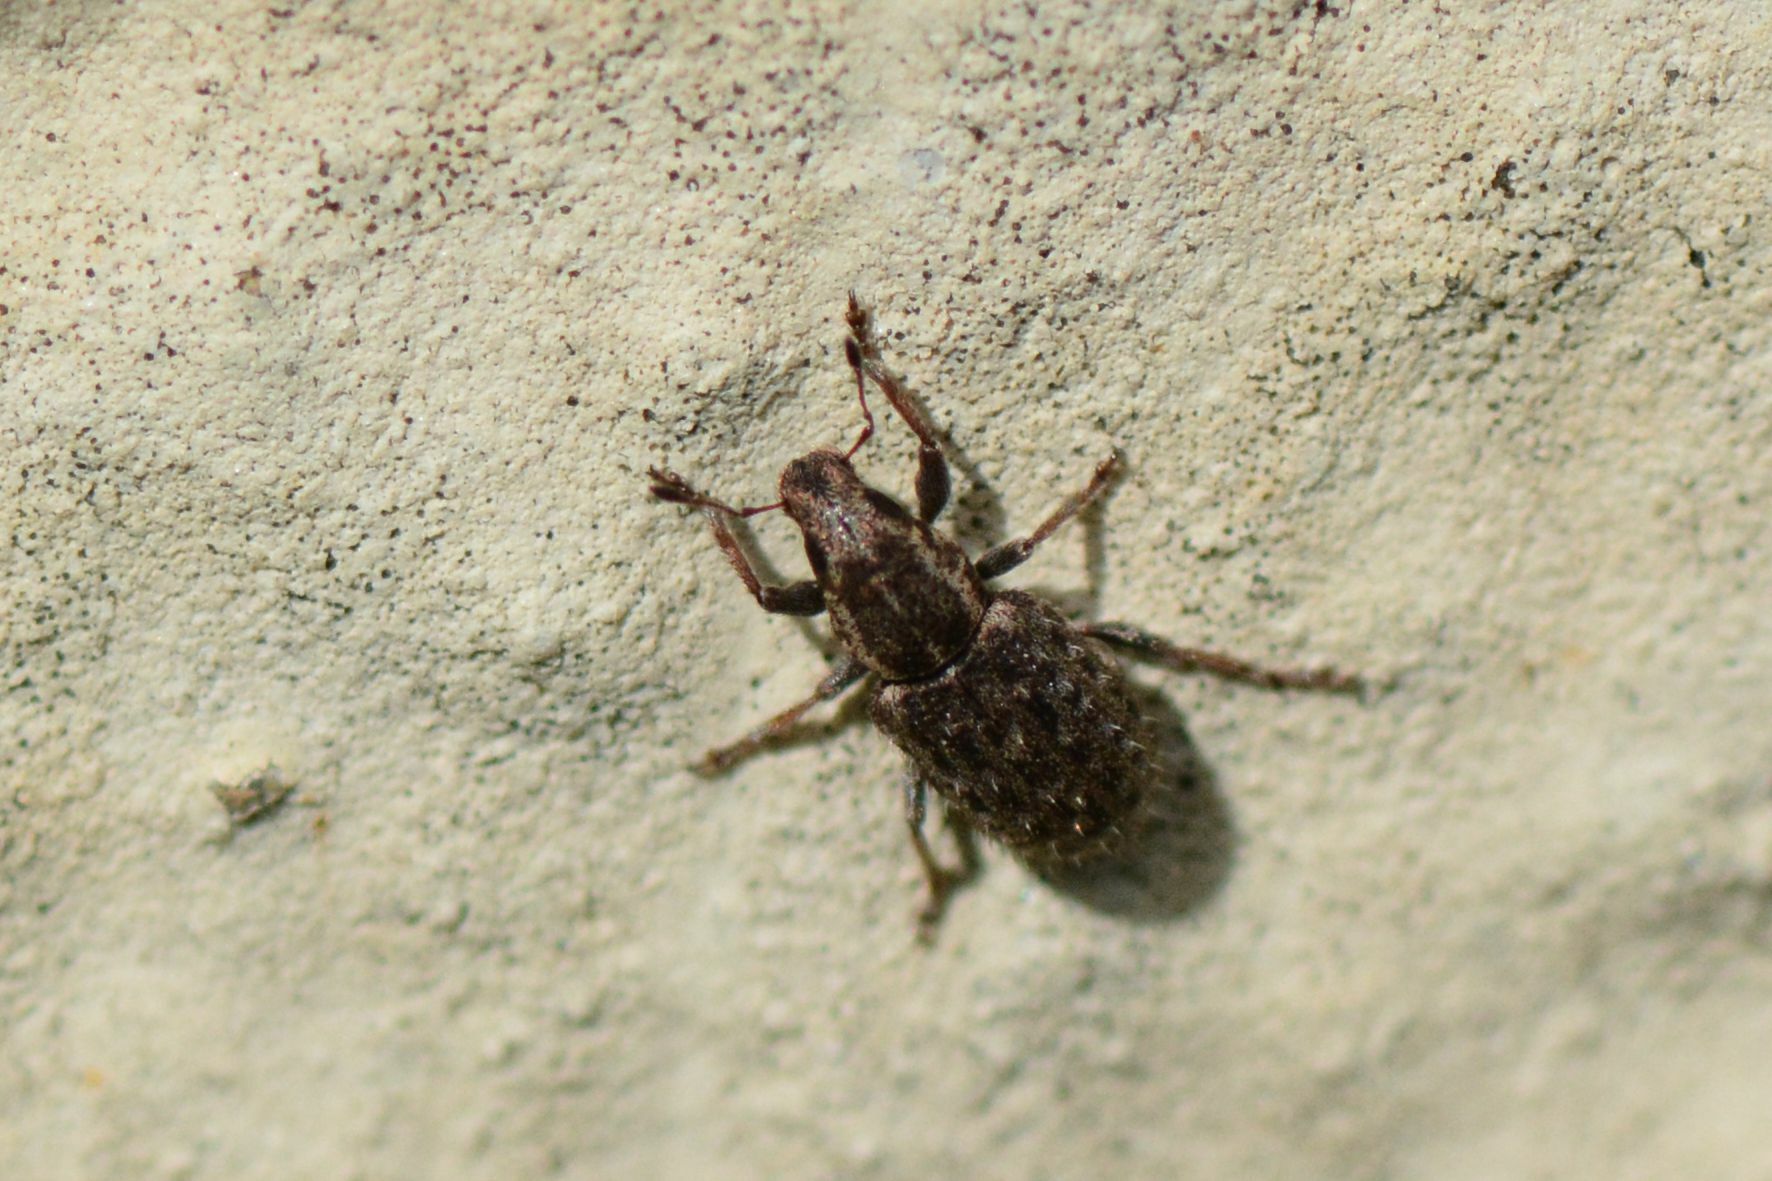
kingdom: Animalia
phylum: Arthropoda
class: Insecta
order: Coleoptera
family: Curculionidae
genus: Sitona
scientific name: Sitona hispidulus
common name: Clover weevil
